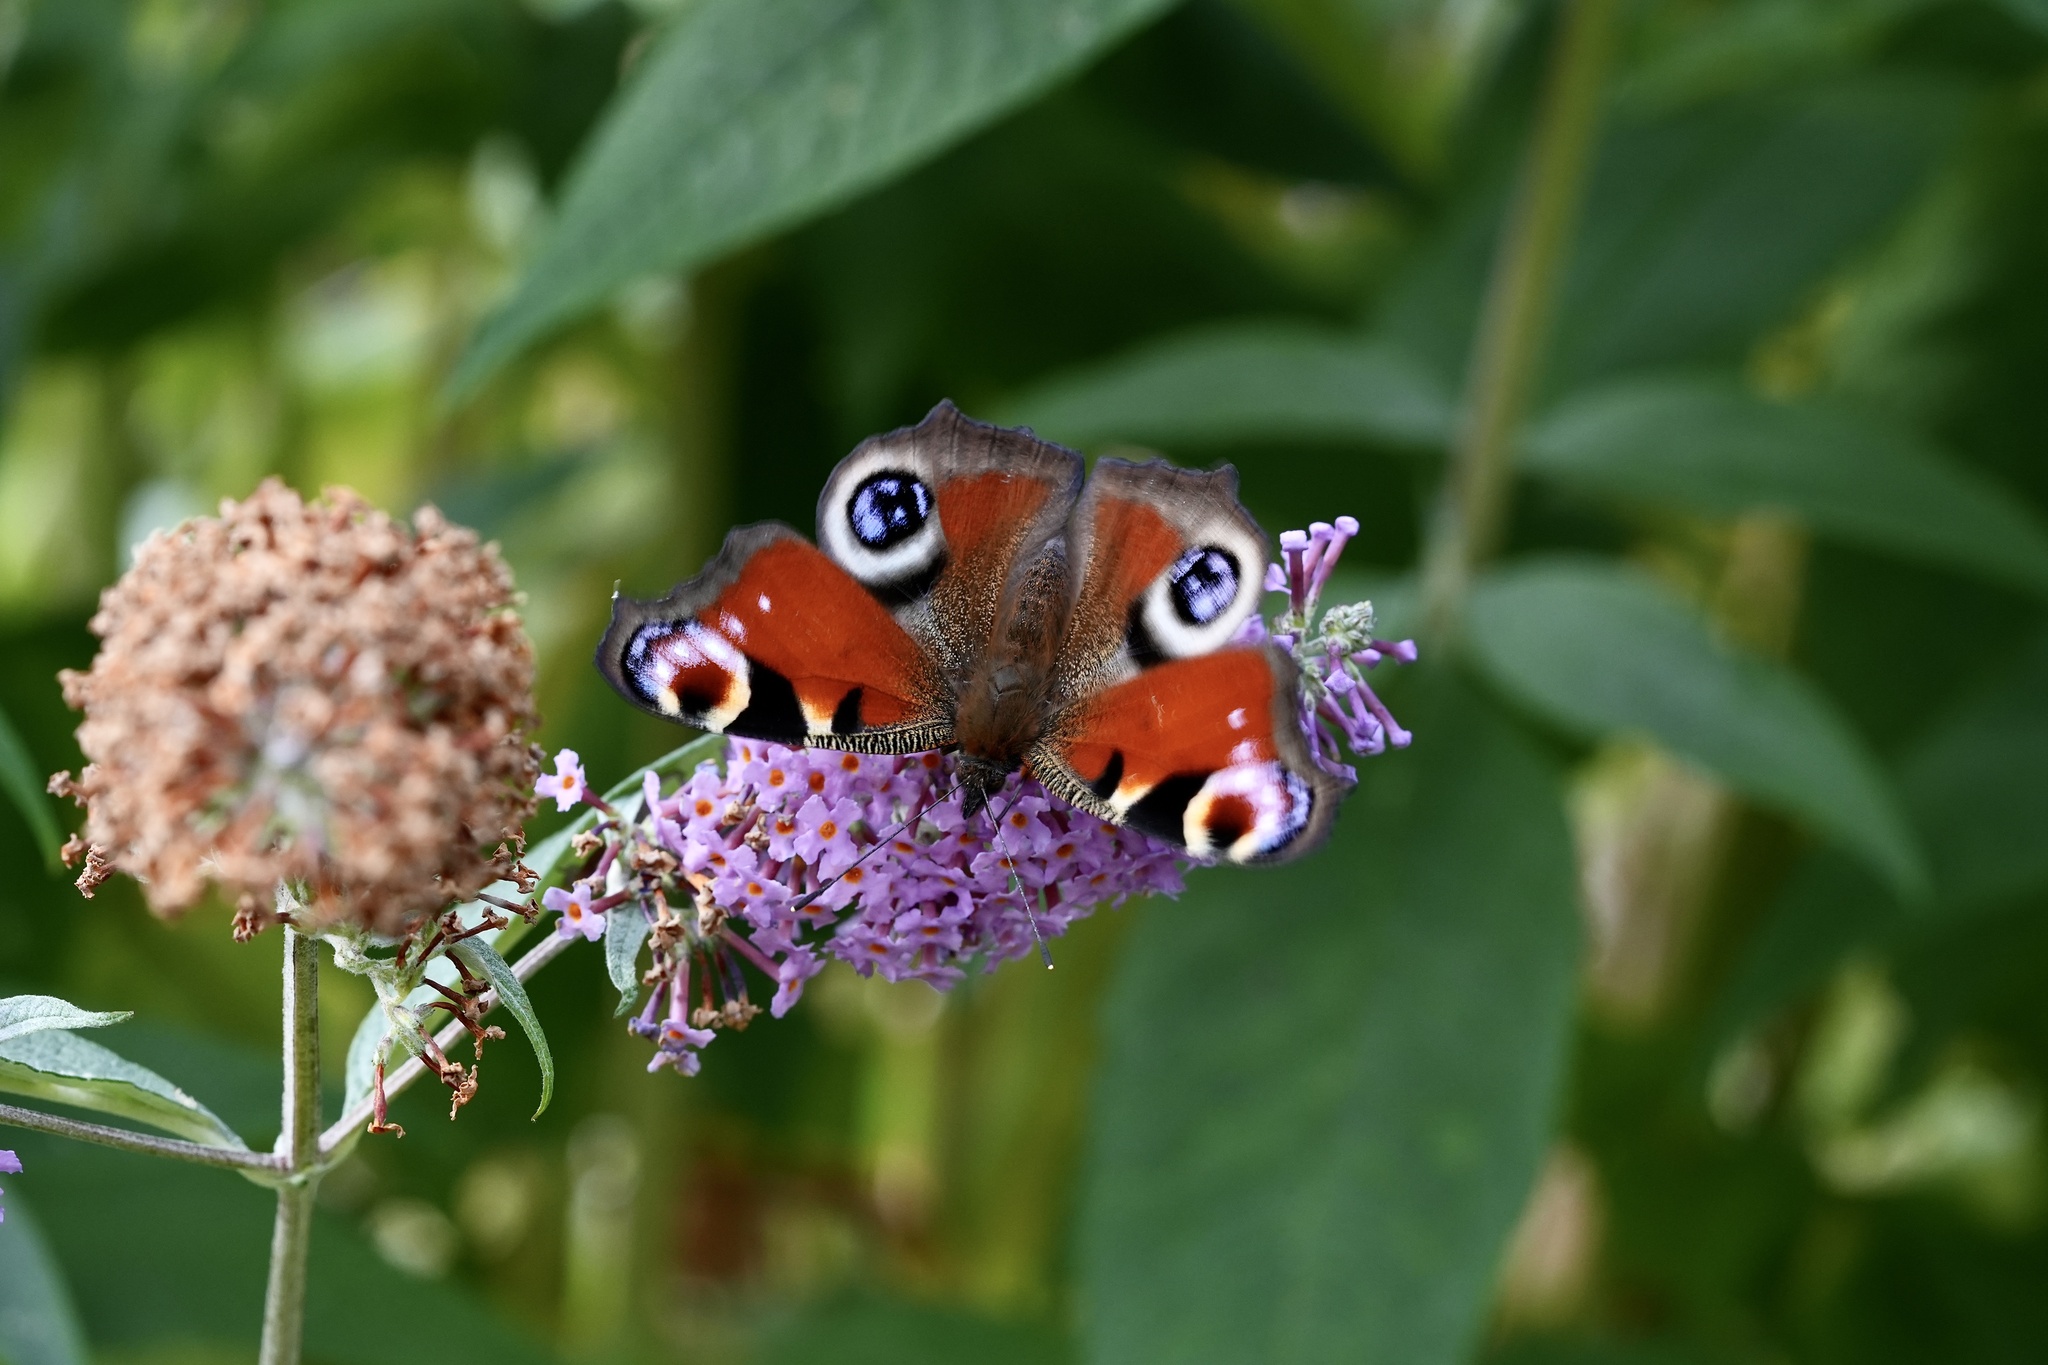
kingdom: Animalia
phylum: Arthropoda
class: Insecta
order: Lepidoptera
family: Nymphalidae
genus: Aglais
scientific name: Aglais io
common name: Peacock
